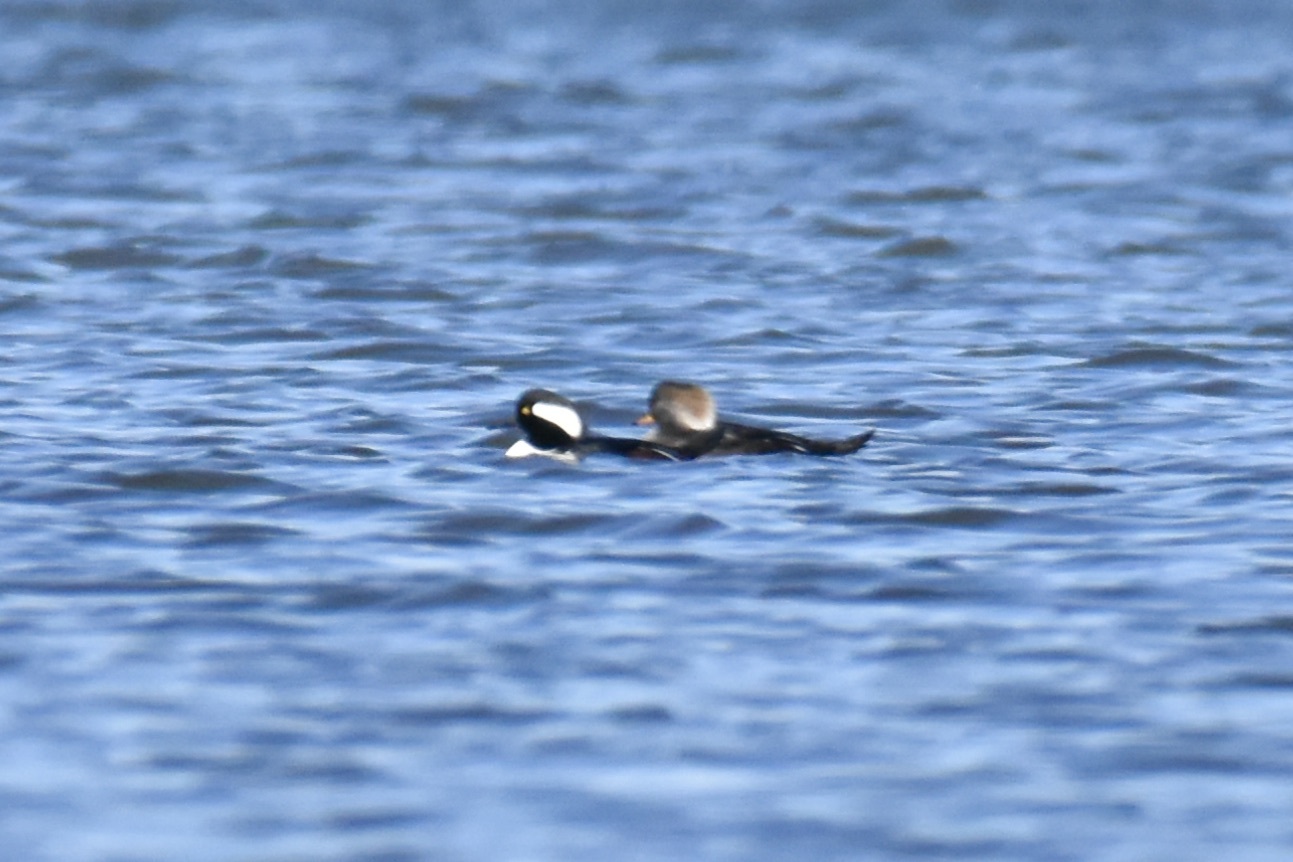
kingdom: Animalia
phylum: Chordata
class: Aves
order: Anseriformes
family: Anatidae
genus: Lophodytes
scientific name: Lophodytes cucullatus
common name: Hooded merganser
